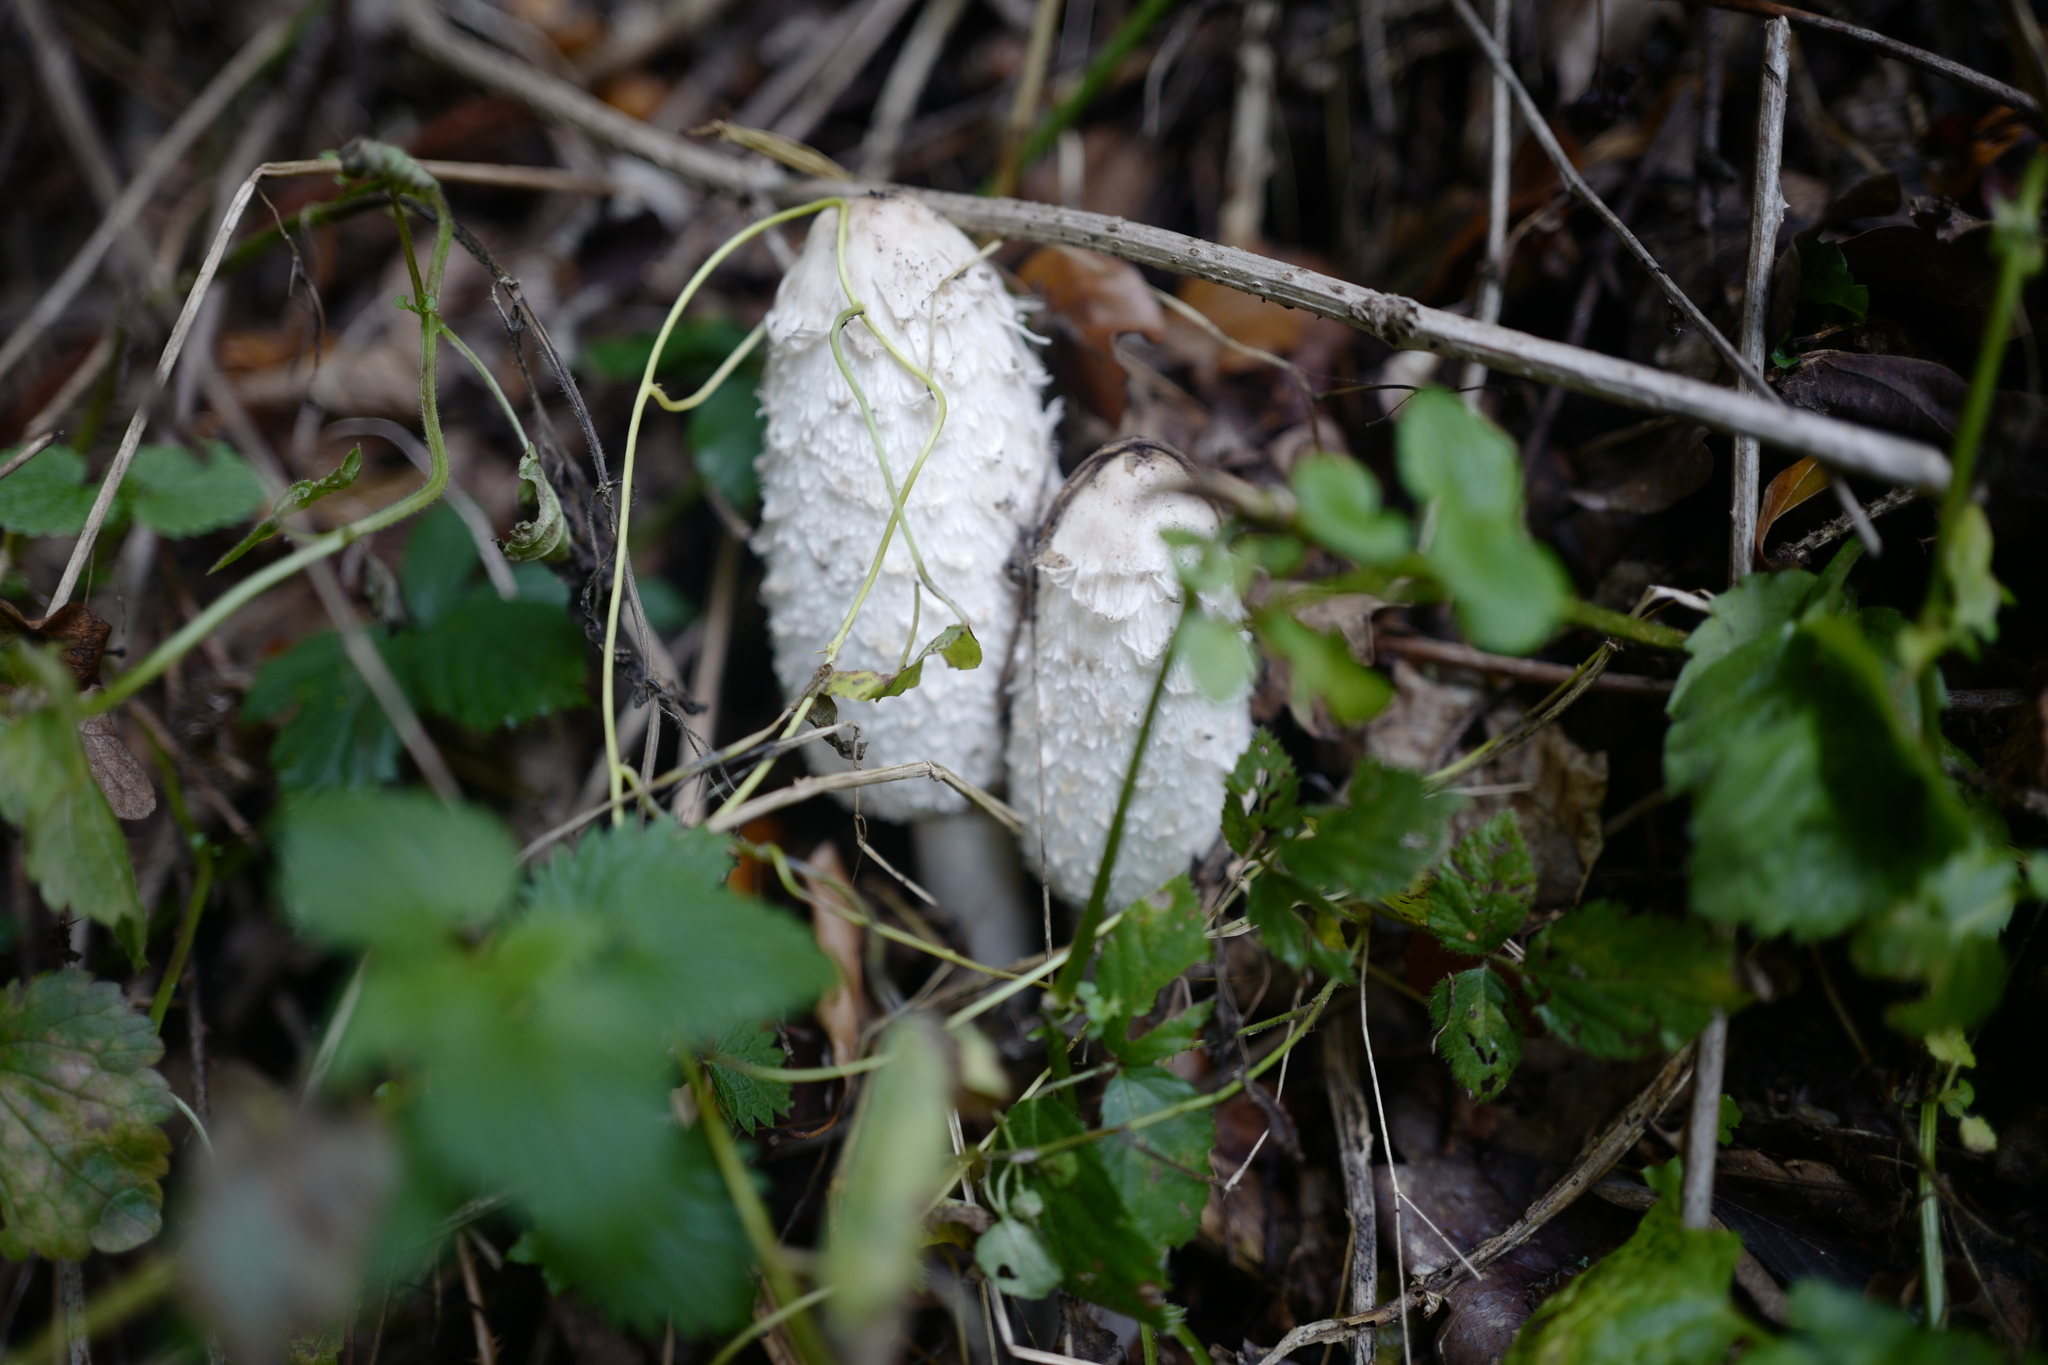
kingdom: Fungi
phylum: Basidiomycota
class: Agaricomycetes
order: Agaricales
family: Agaricaceae
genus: Coprinus
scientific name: Coprinus comatus
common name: Lawyer's wig
